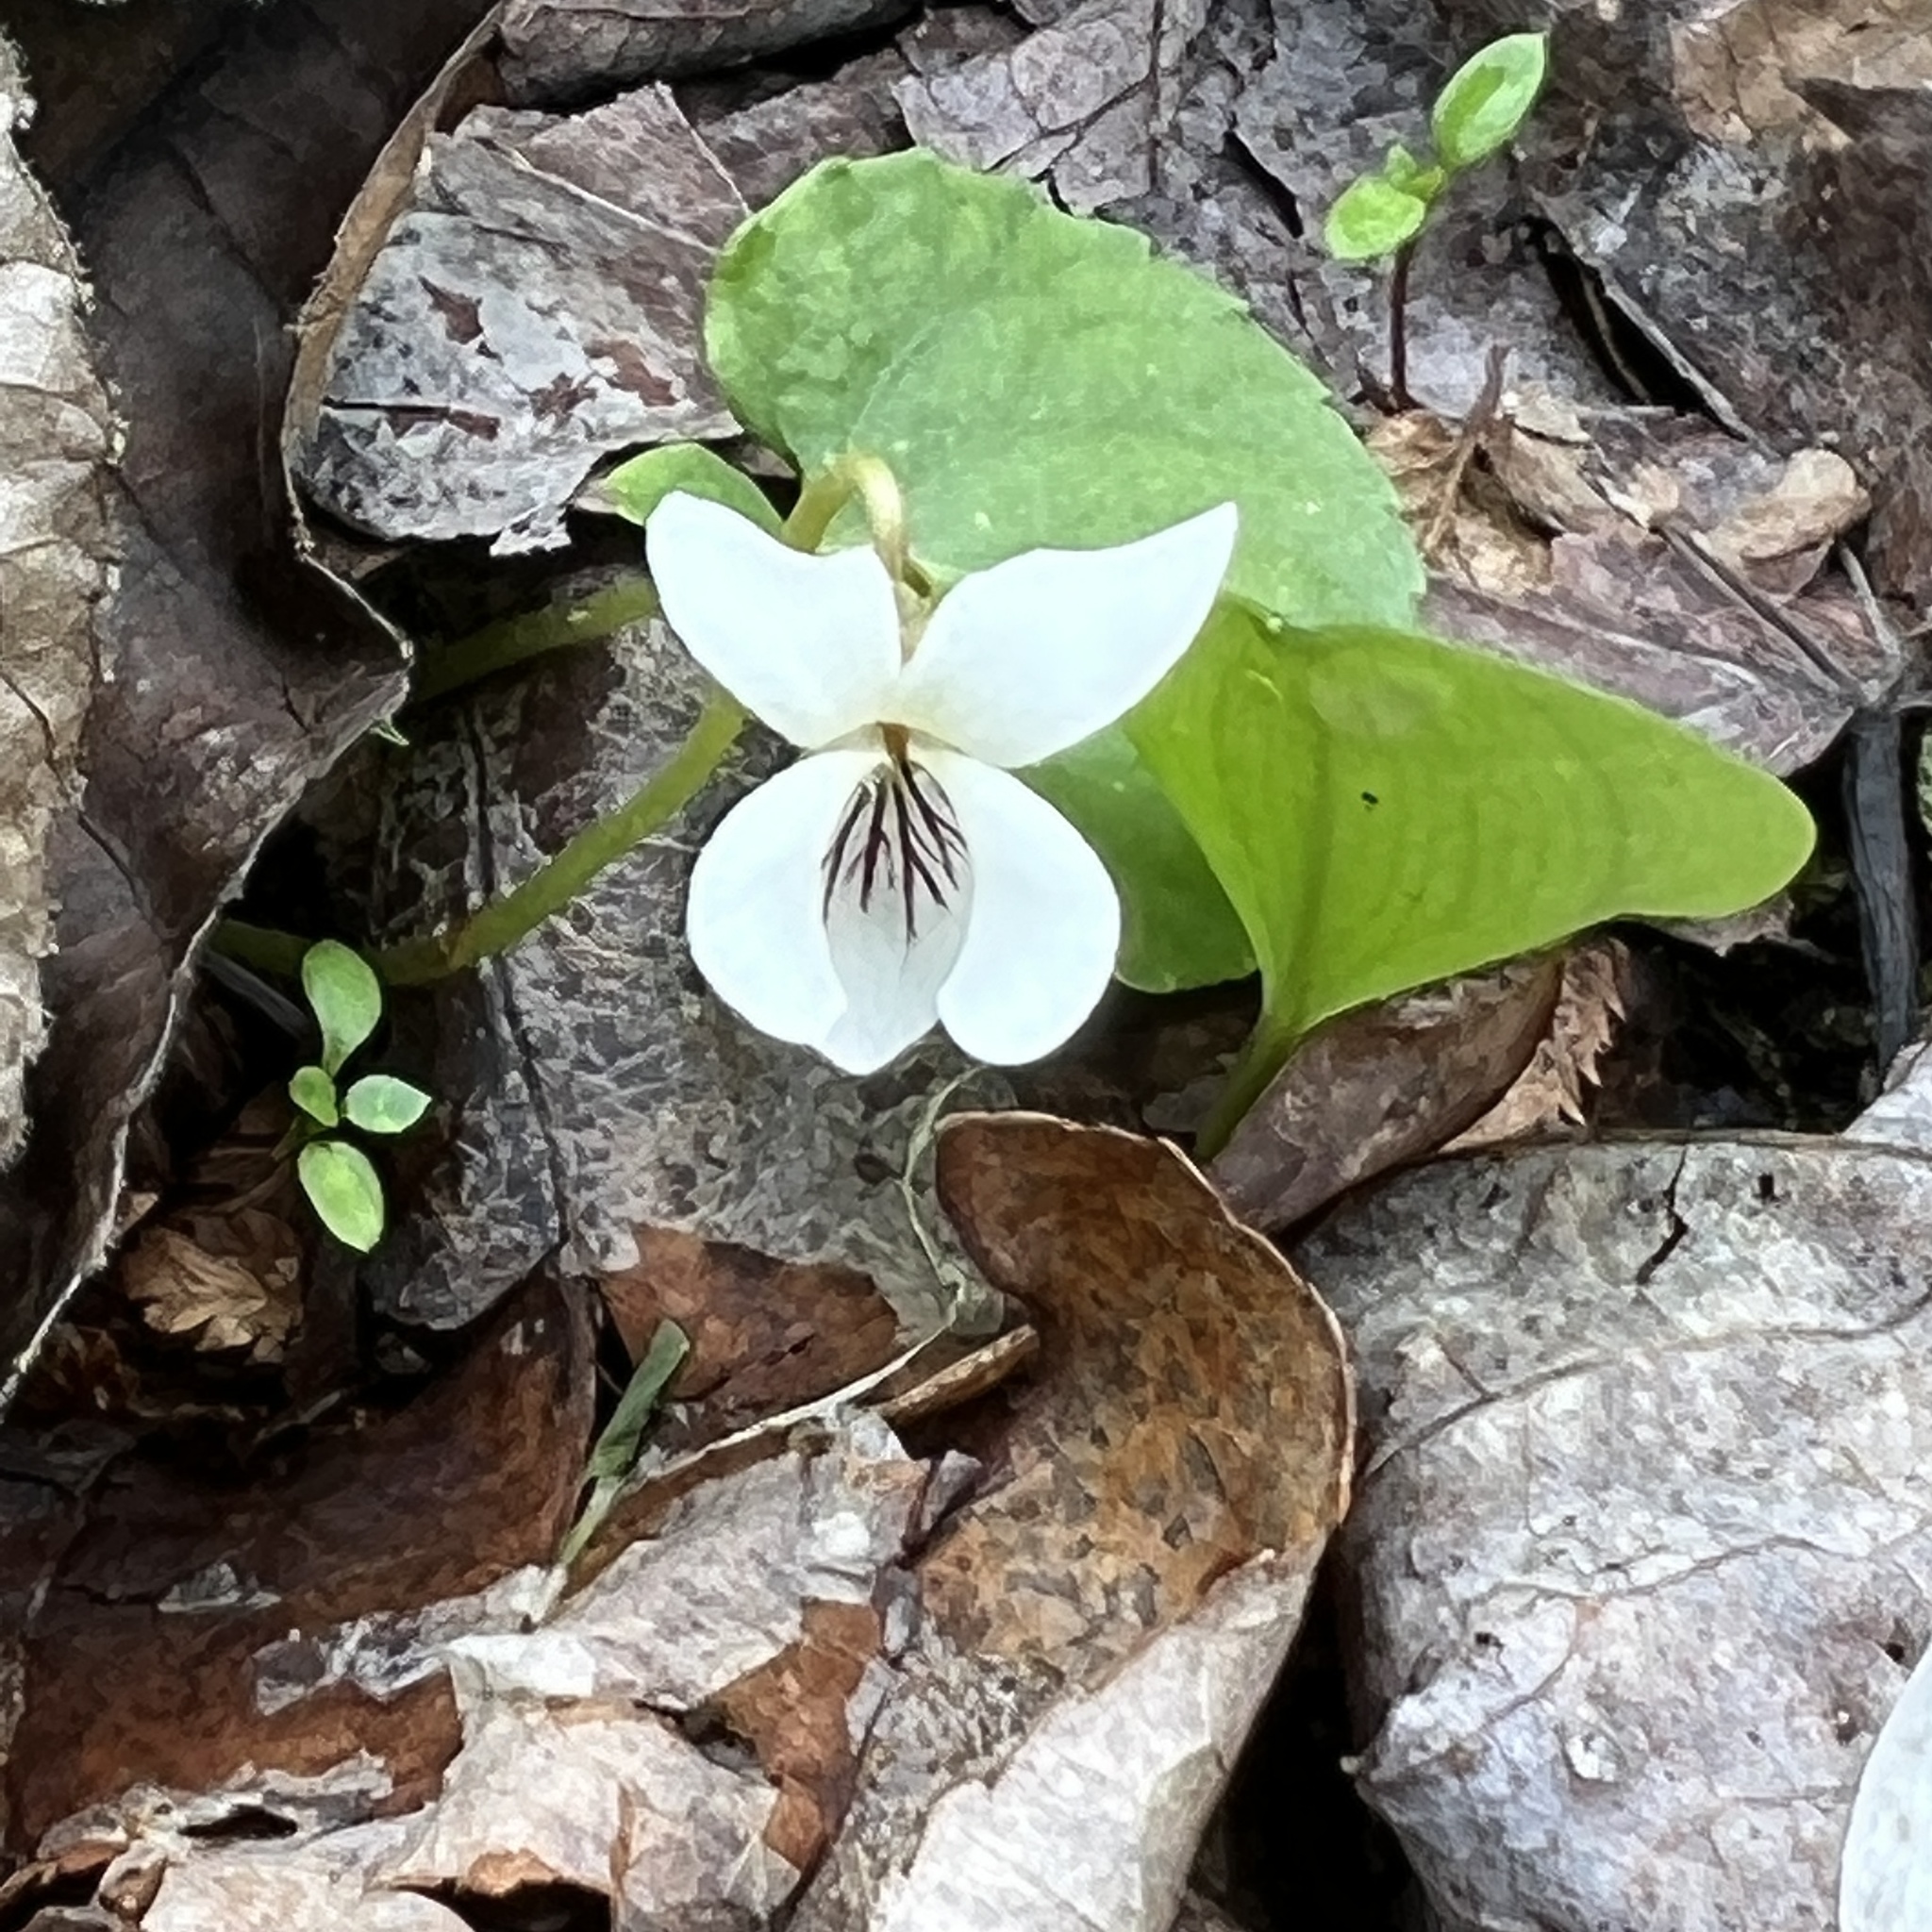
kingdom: Plantae
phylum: Tracheophyta
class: Magnoliopsida
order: Malpighiales
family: Violaceae
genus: Viola
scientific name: Viola striata
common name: Cream violet
